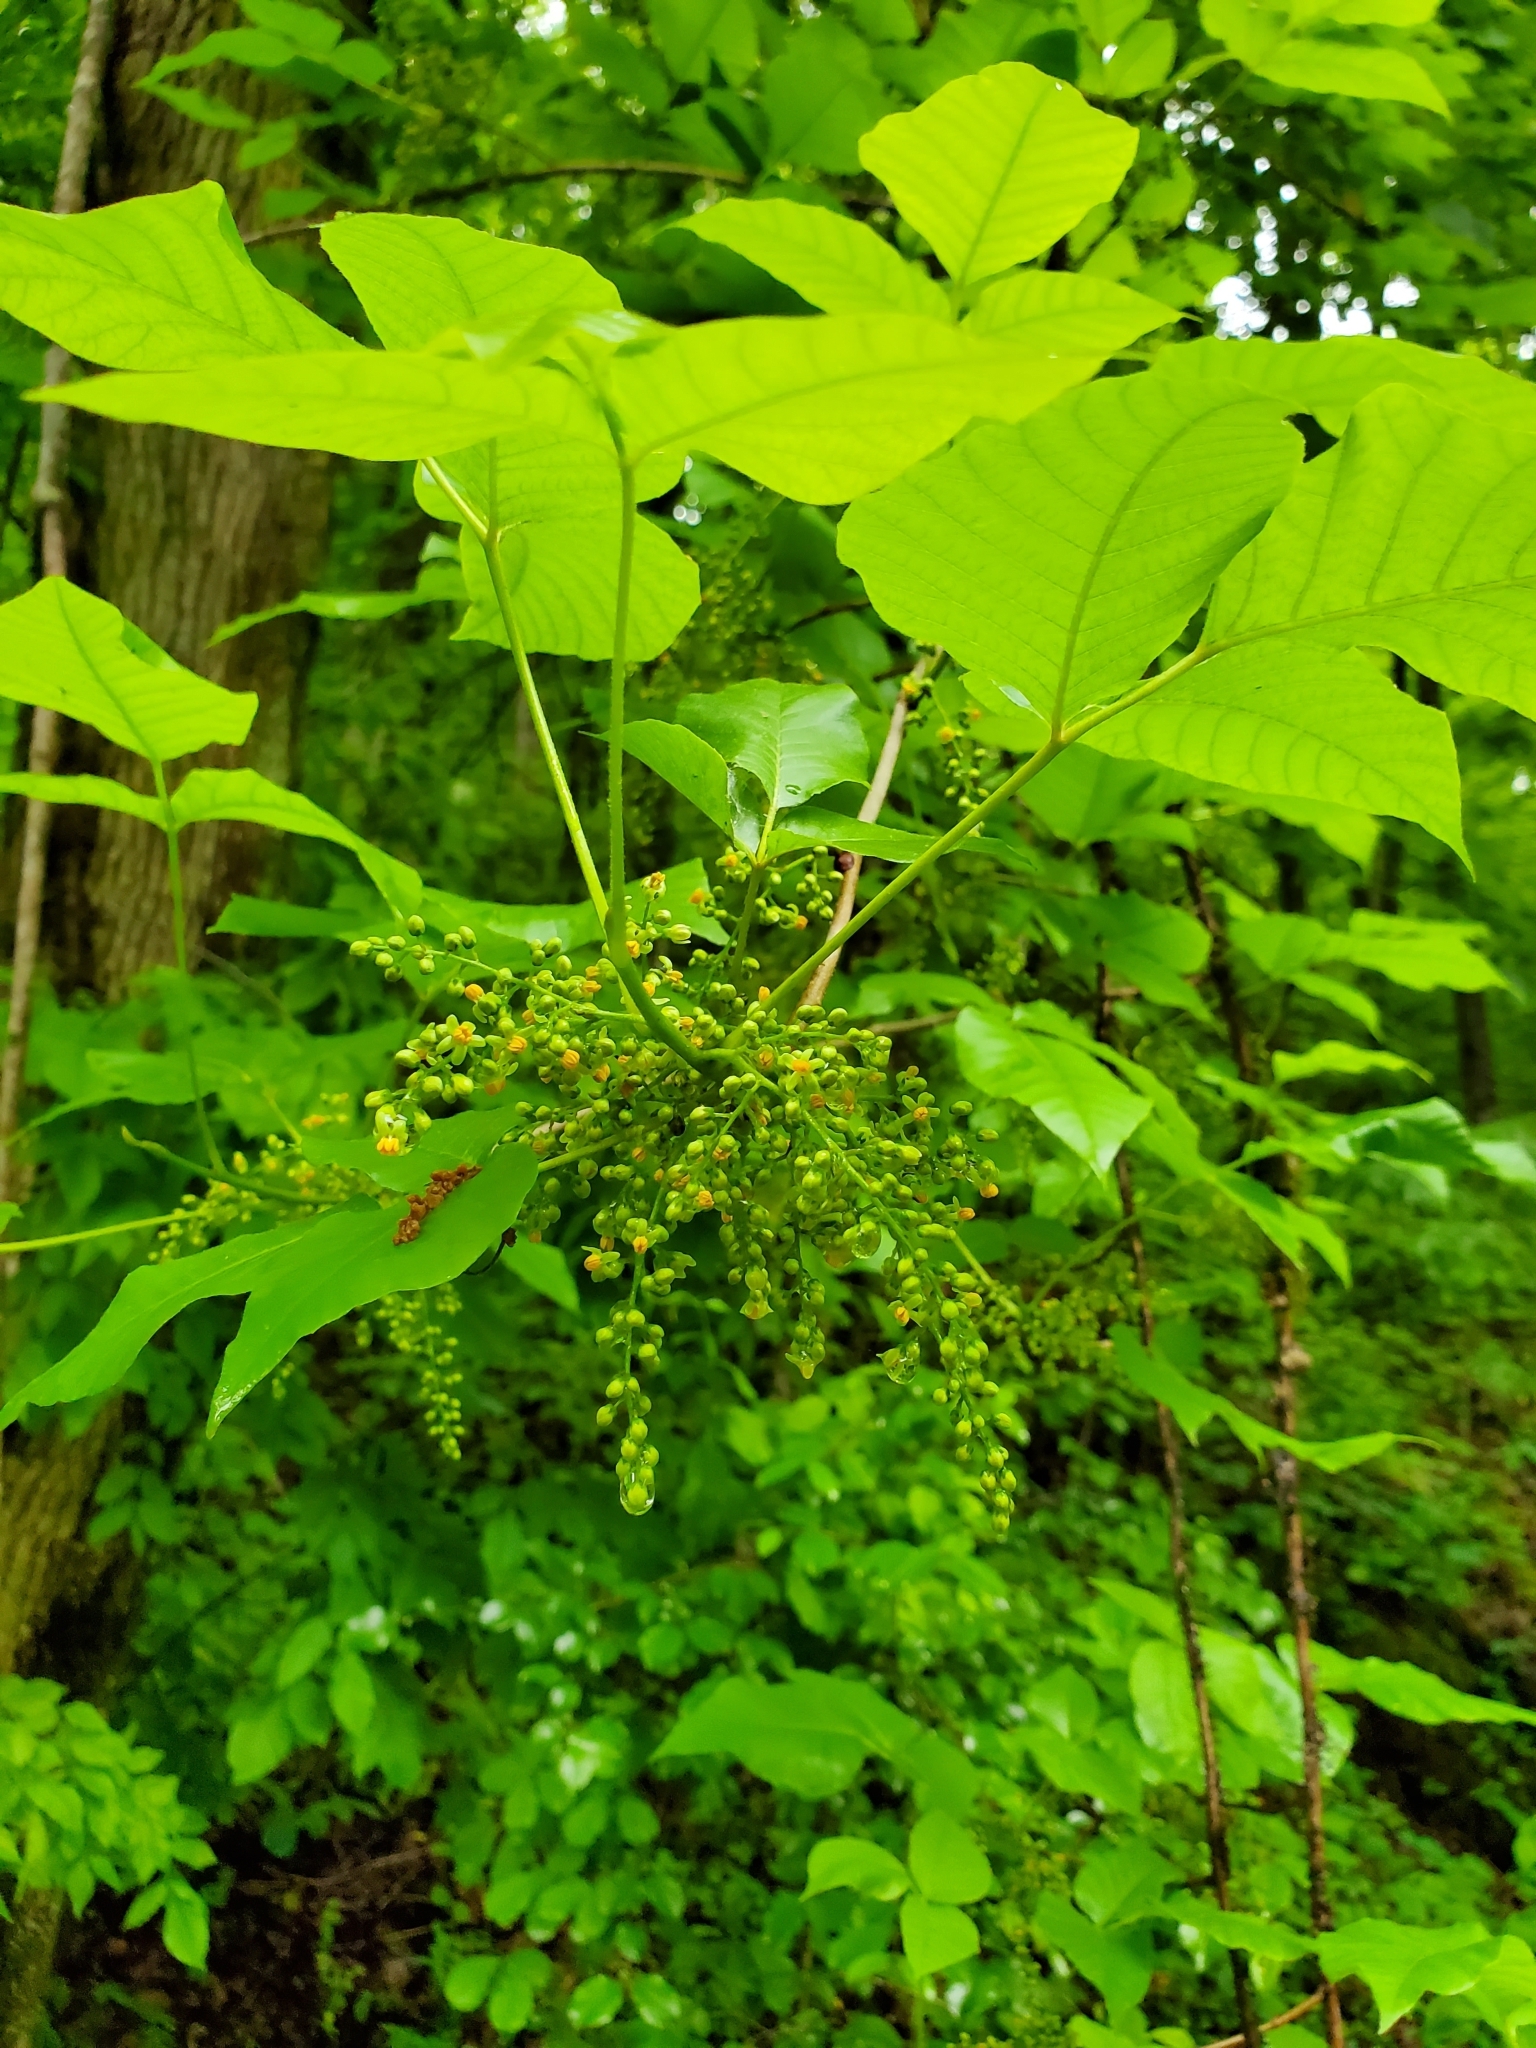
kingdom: Plantae
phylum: Tracheophyta
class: Magnoliopsida
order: Sapindales
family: Anacardiaceae
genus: Toxicodendron
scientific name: Toxicodendron radicans
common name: Poison ivy
